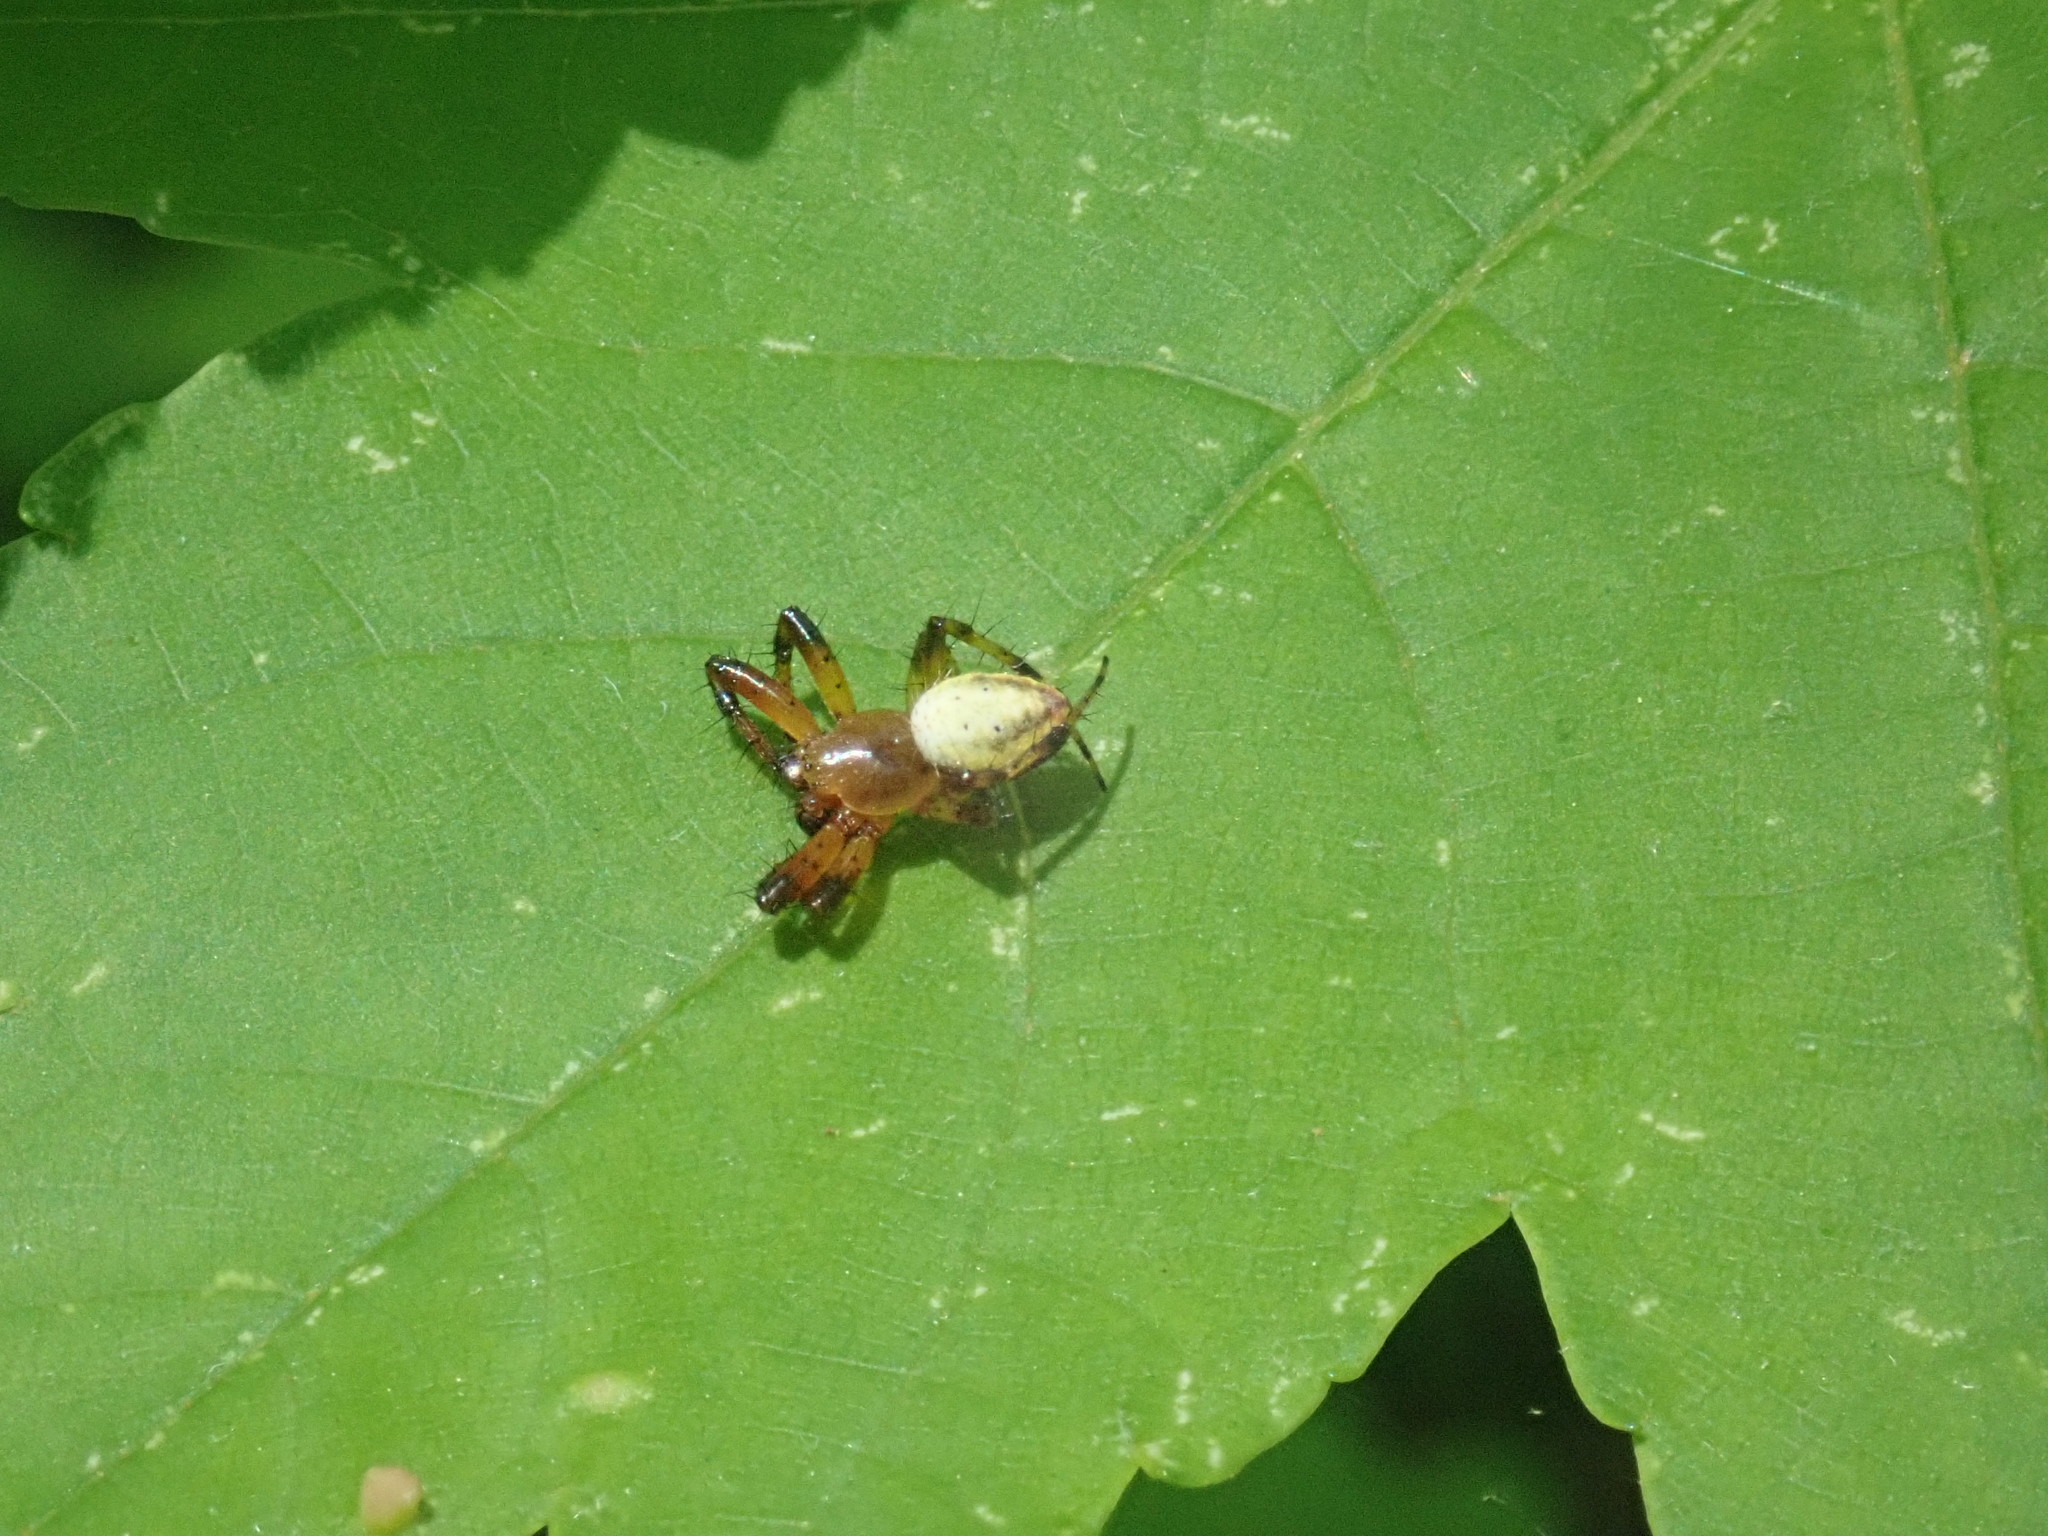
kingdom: Animalia
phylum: Arthropoda
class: Arachnida
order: Araneae
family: Araneidae
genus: Araniella
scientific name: Araniella displicata
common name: Sixspotted orb weaver
